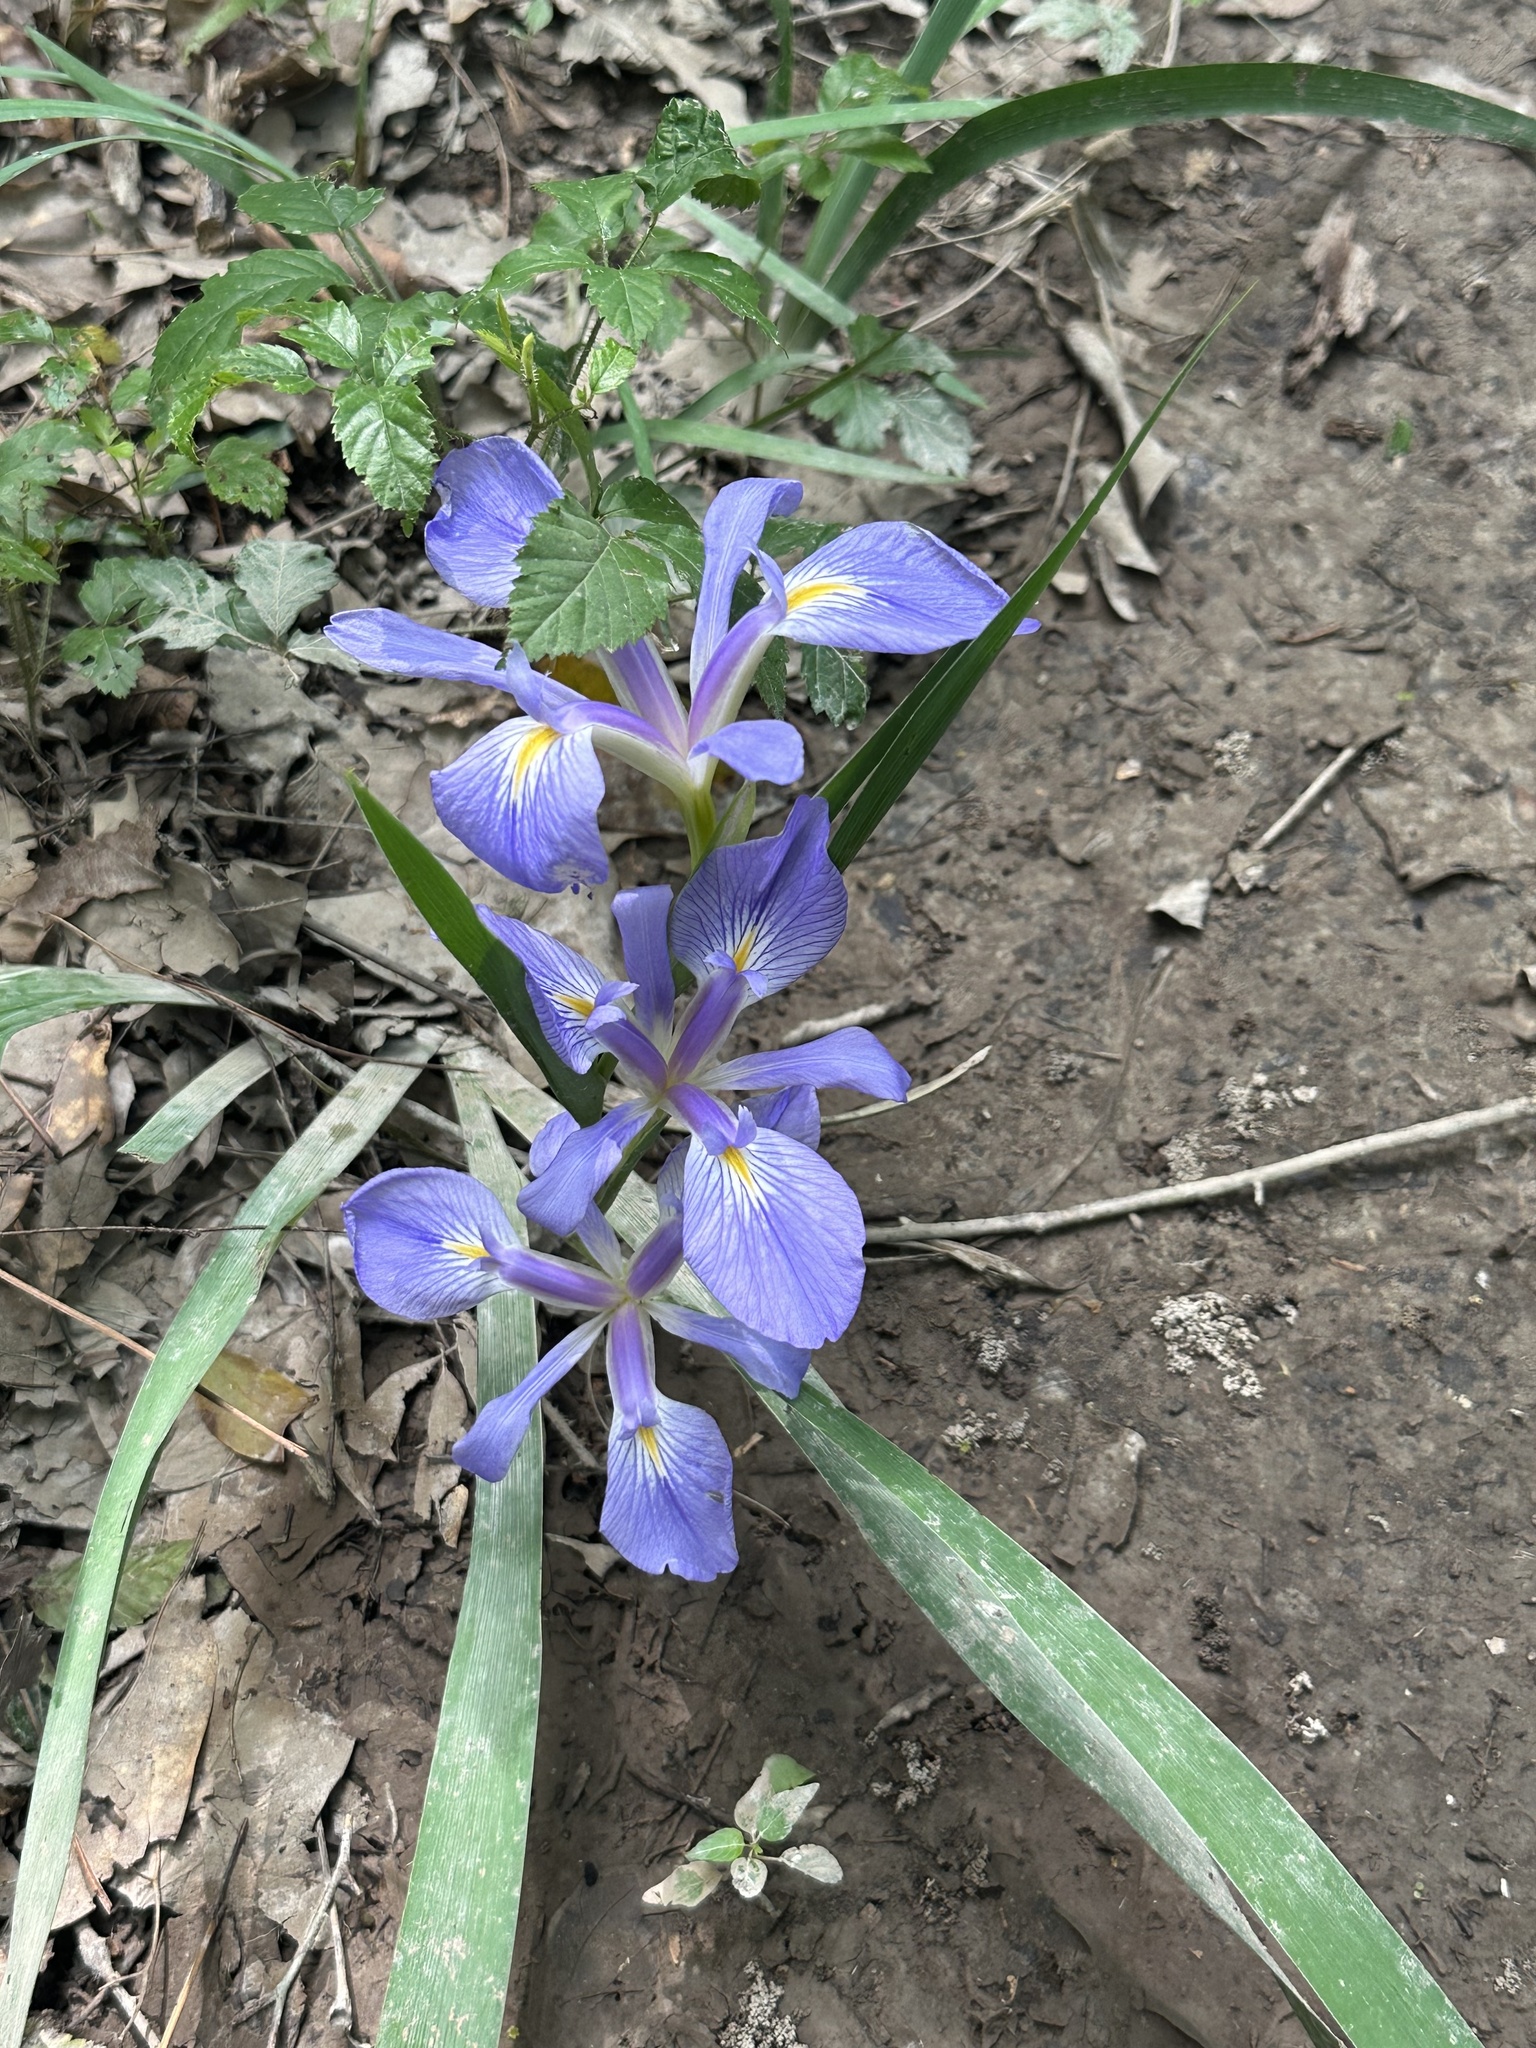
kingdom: Plantae
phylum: Tracheophyta
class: Liliopsida
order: Asparagales
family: Iridaceae
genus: Iris
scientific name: Iris brevicaulis
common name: Zigzag iris
